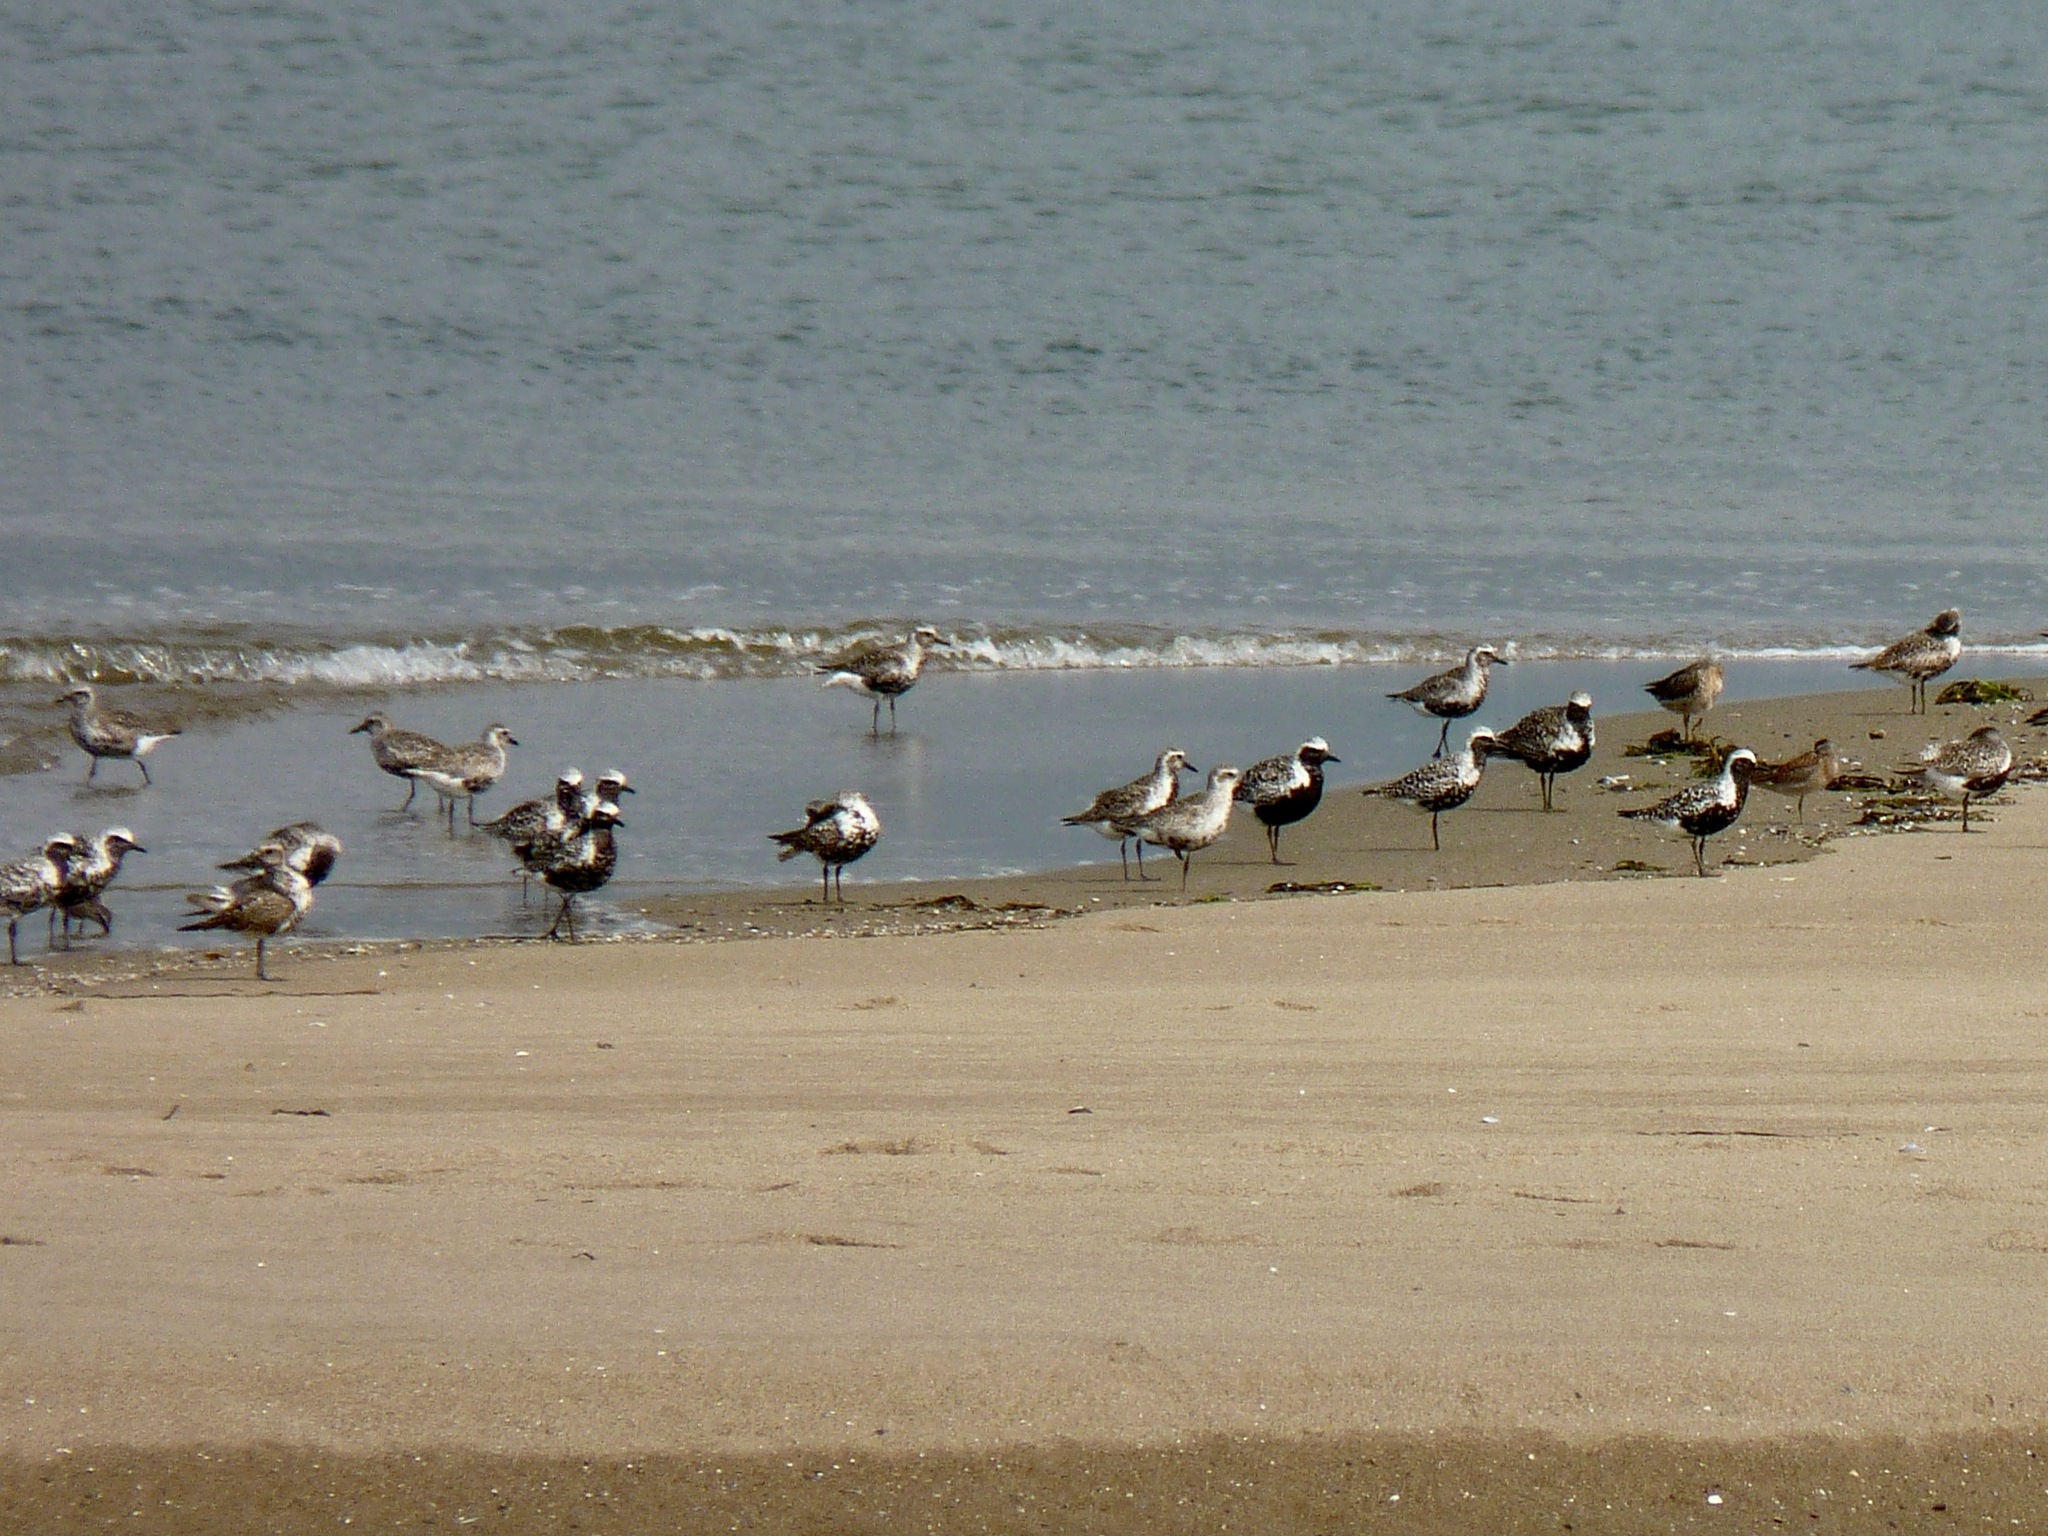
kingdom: Animalia
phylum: Chordata
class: Aves
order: Charadriiformes
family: Charadriidae
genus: Pluvialis
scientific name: Pluvialis squatarola
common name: Grey plover
